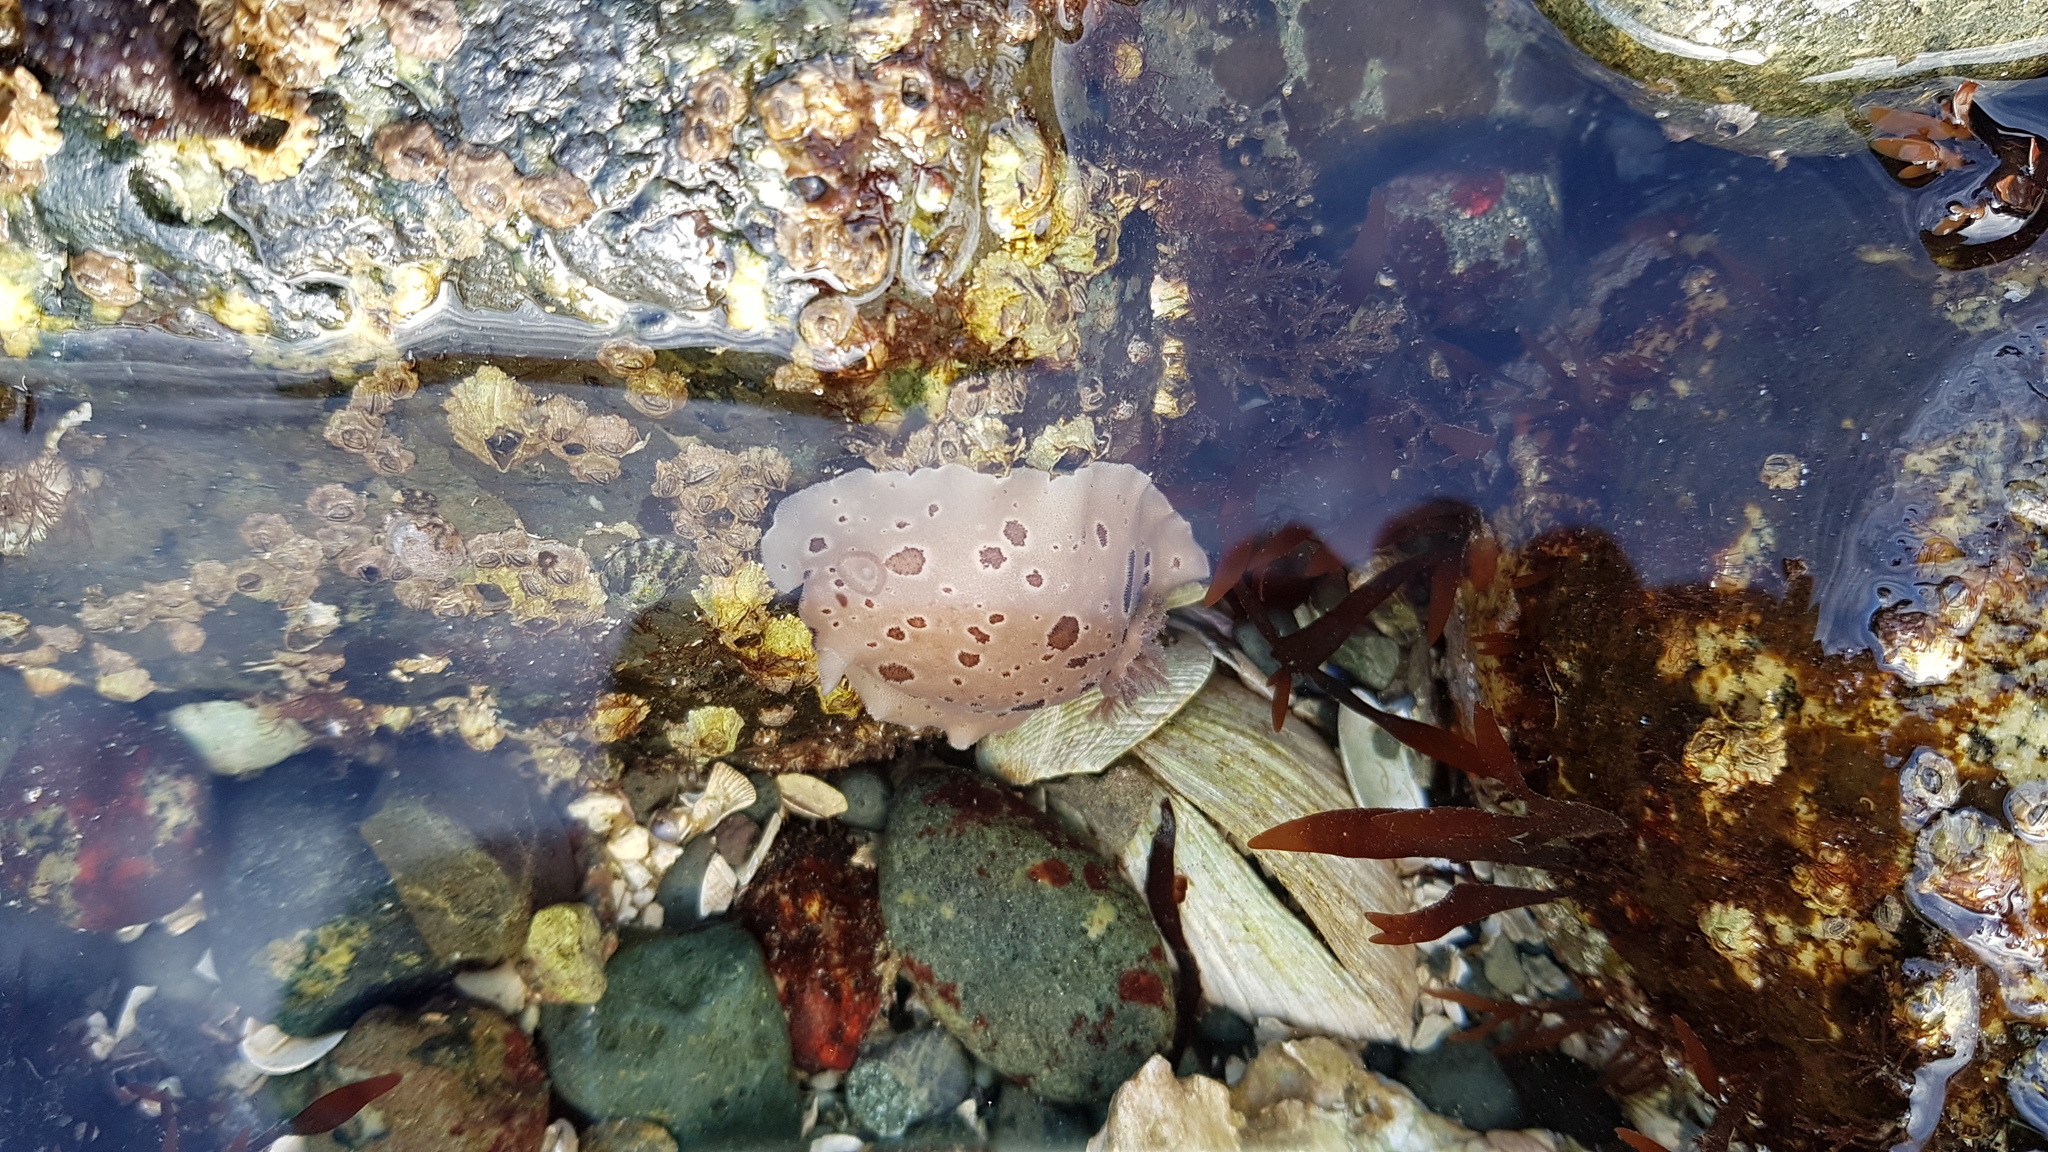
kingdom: Animalia
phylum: Mollusca
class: Gastropoda
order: Nudibranchia
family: Discodorididae
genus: Diaulula
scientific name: Diaulula odonoghuei
